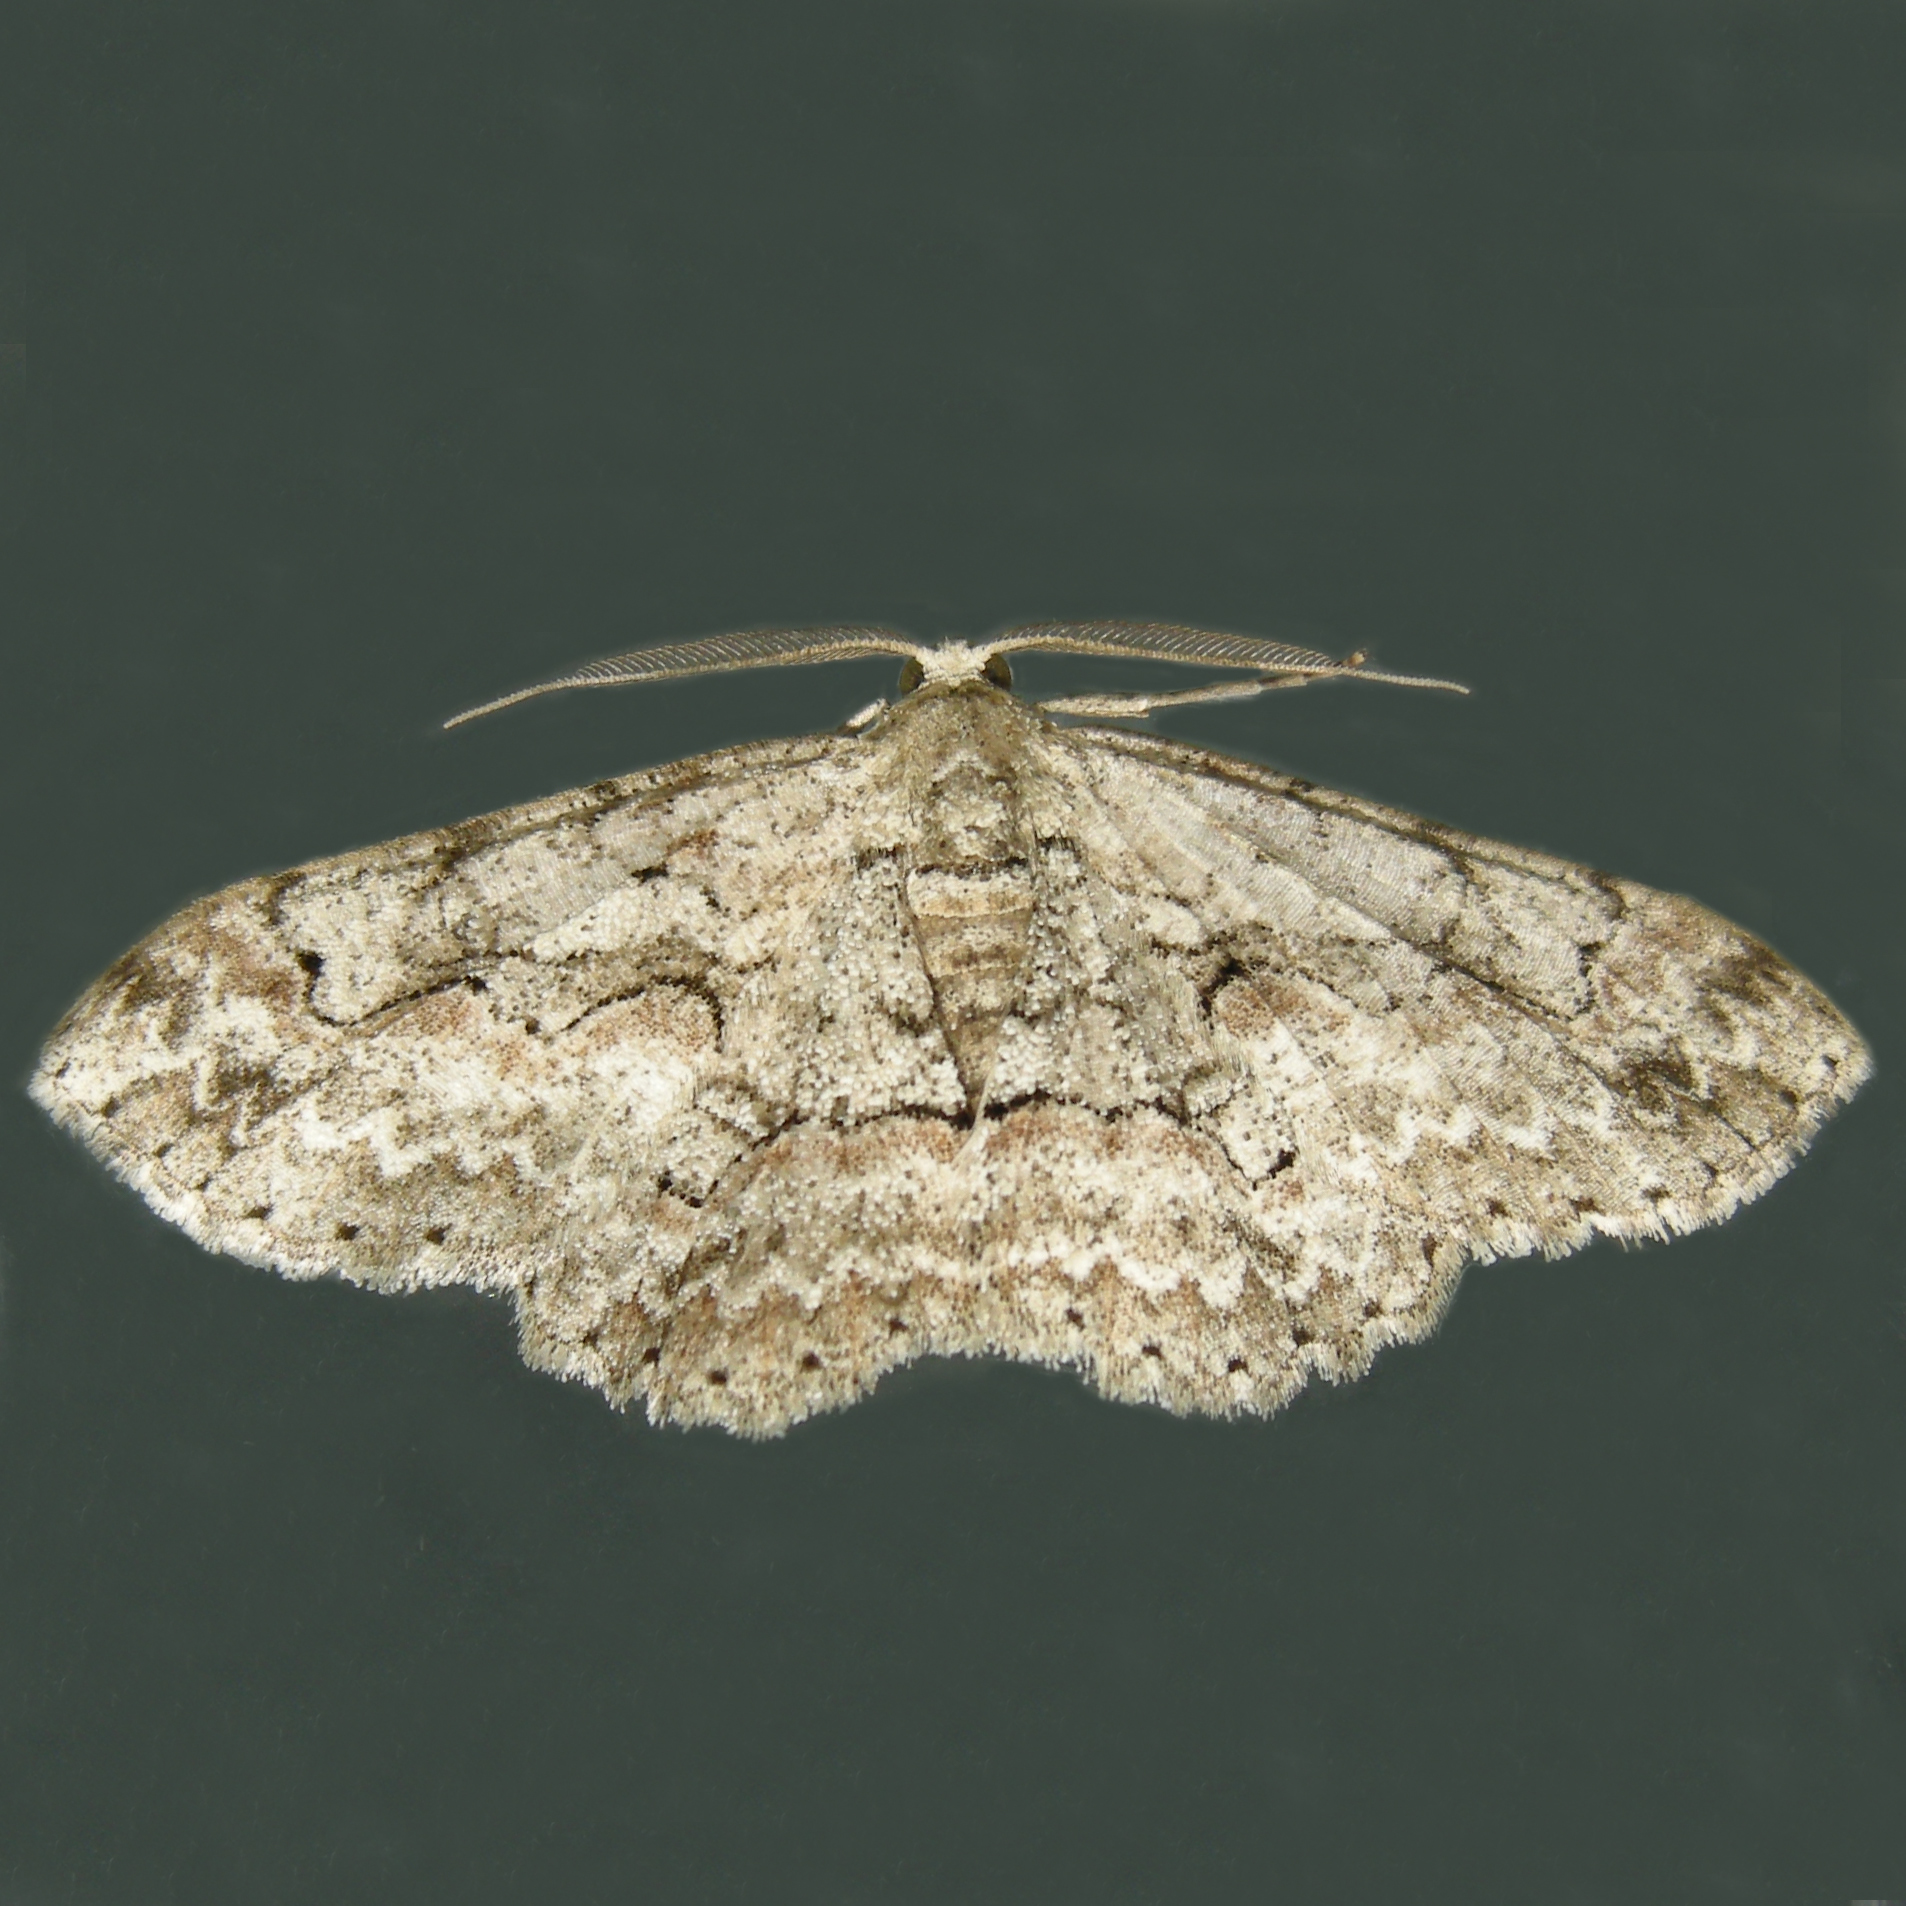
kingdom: Animalia
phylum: Arthropoda
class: Insecta
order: Lepidoptera
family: Geometridae
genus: Iridopsis
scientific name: Iridopsis defectaria
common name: Brown-shaded gray
